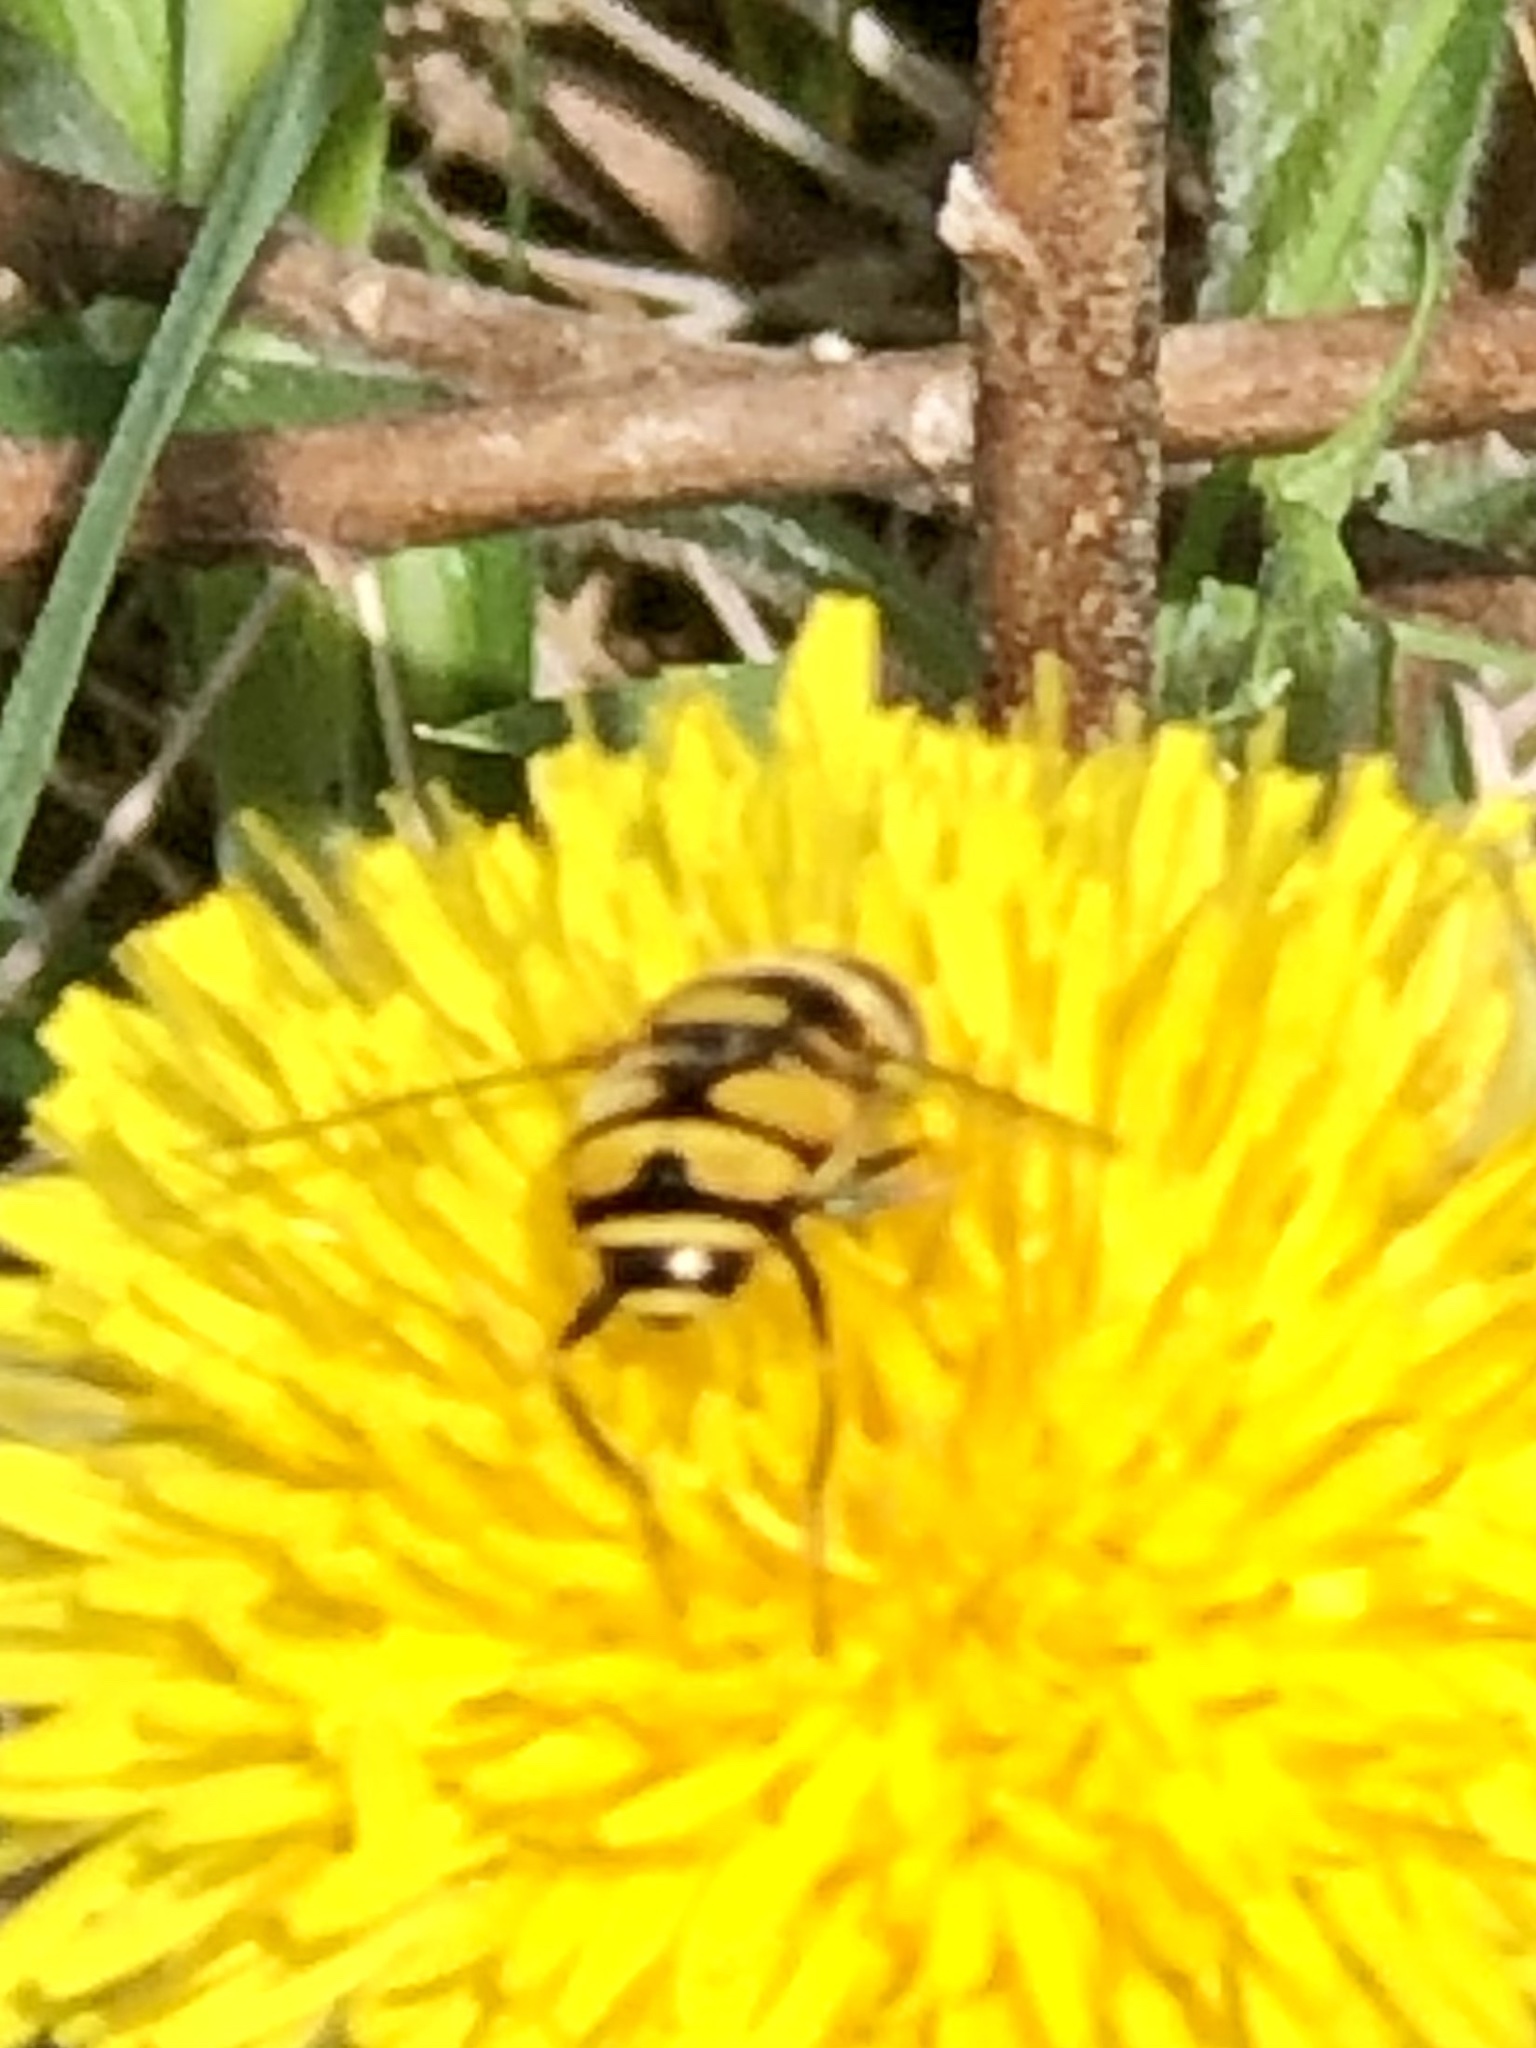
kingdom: Animalia
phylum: Arthropoda
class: Insecta
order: Diptera
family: Syrphidae
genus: Eristalis
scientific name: Eristalis transversa
